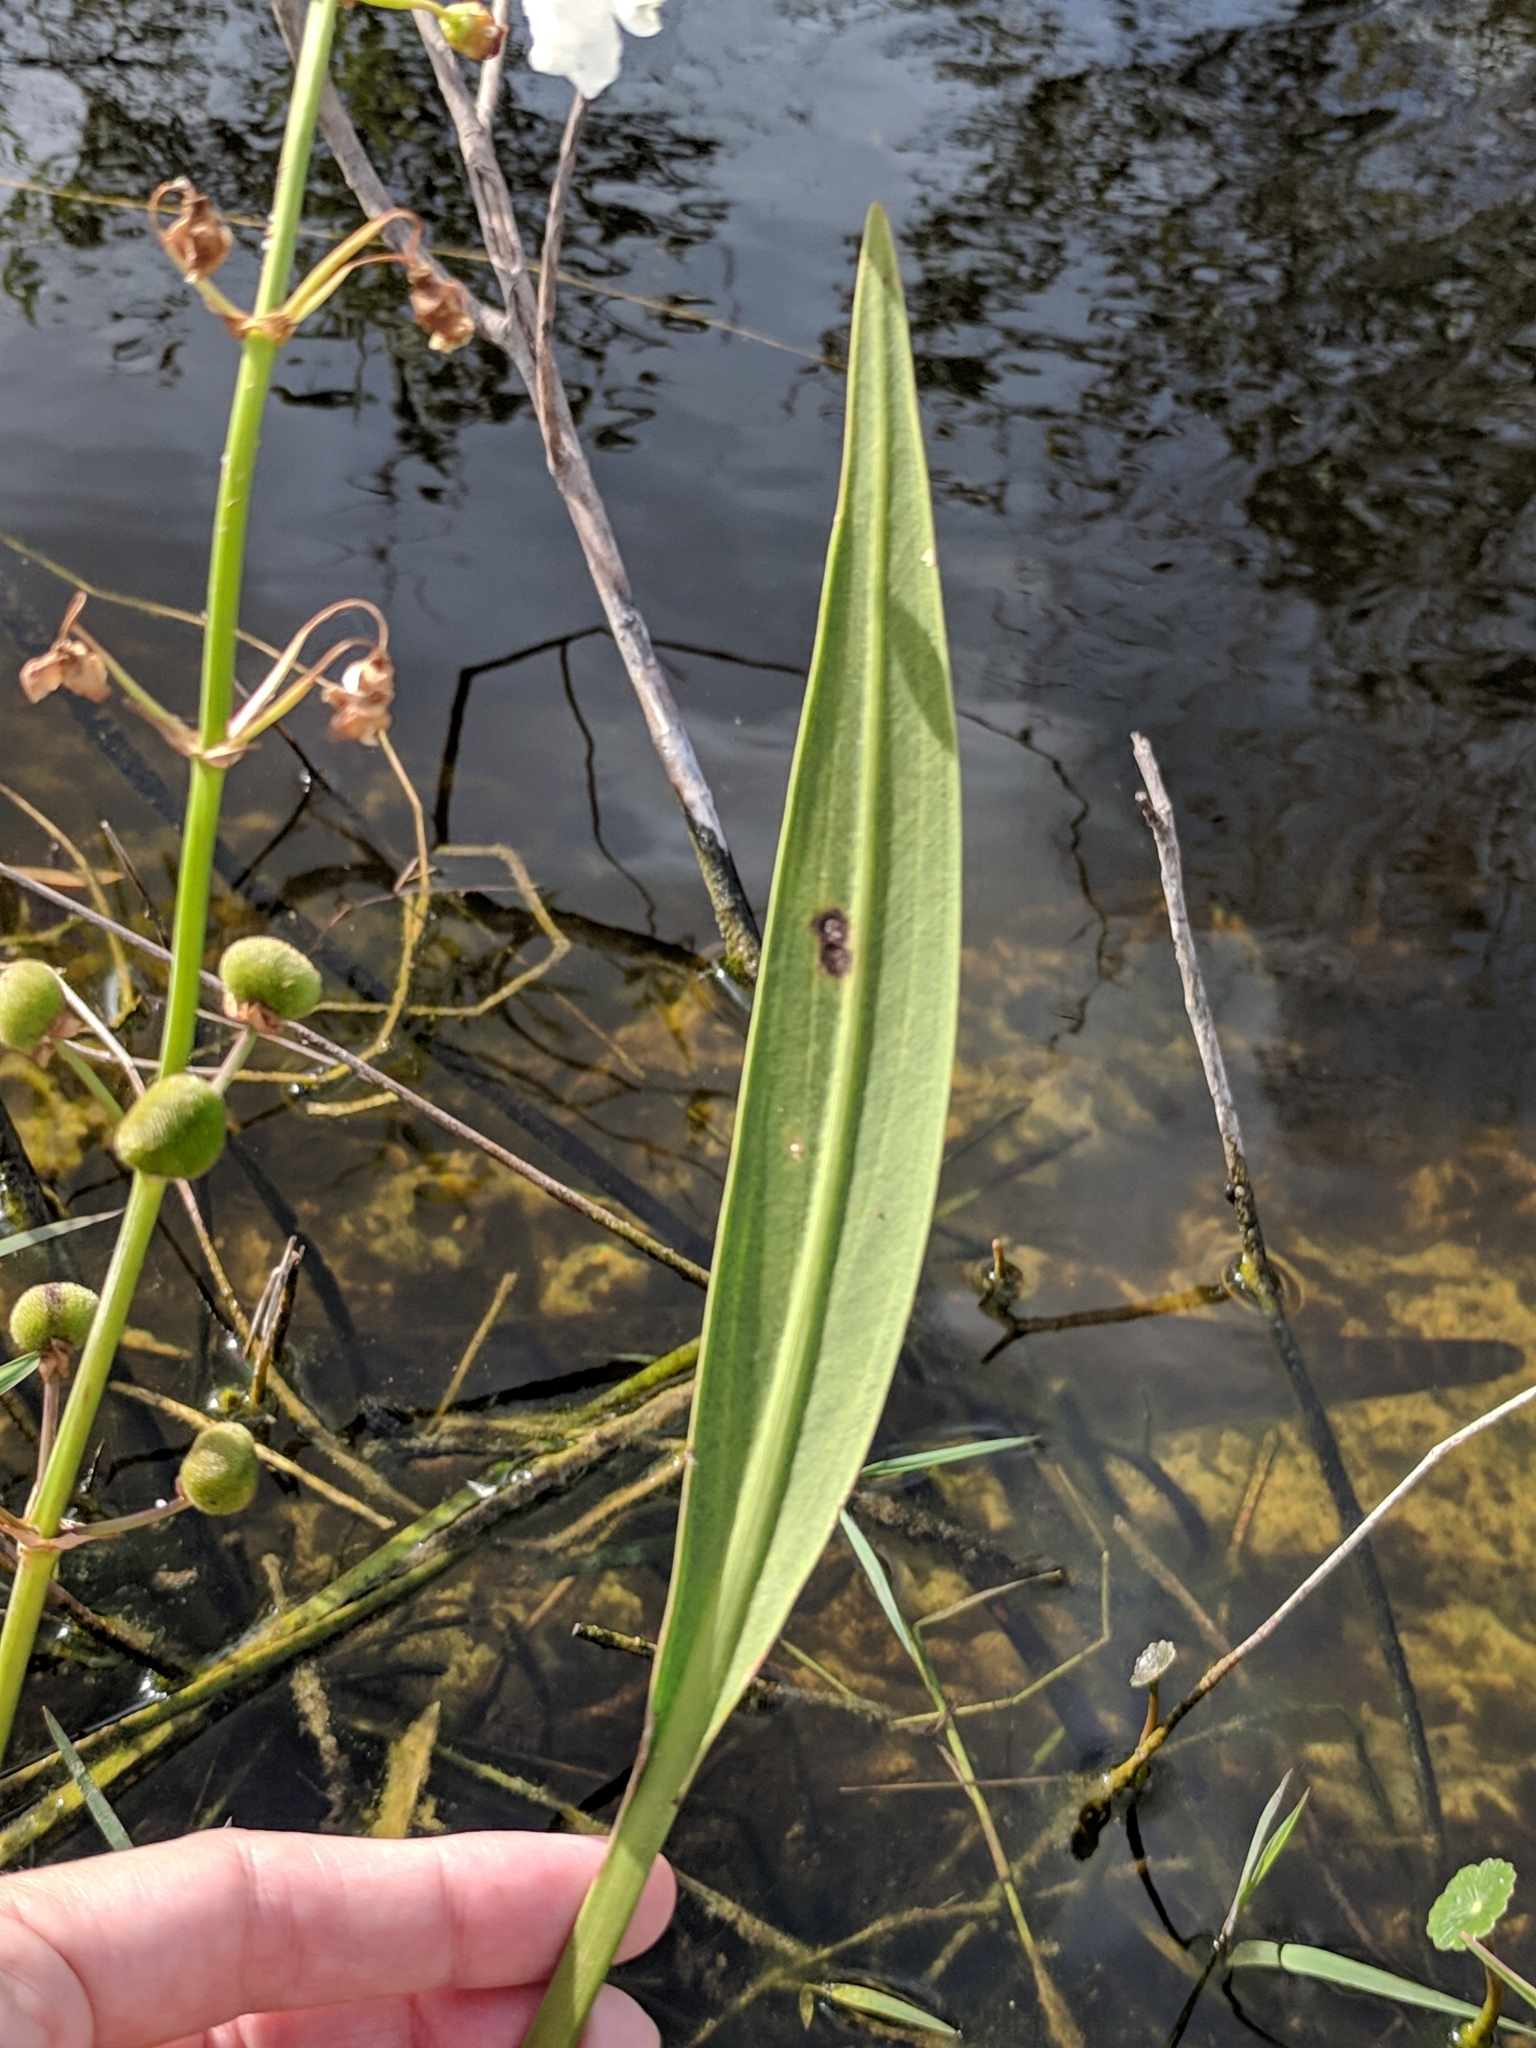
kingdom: Plantae
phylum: Tracheophyta
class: Liliopsida
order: Alismatales
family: Alismataceae
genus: Sagittaria
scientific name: Sagittaria lancifolia
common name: Lance-leaf arrowhead
